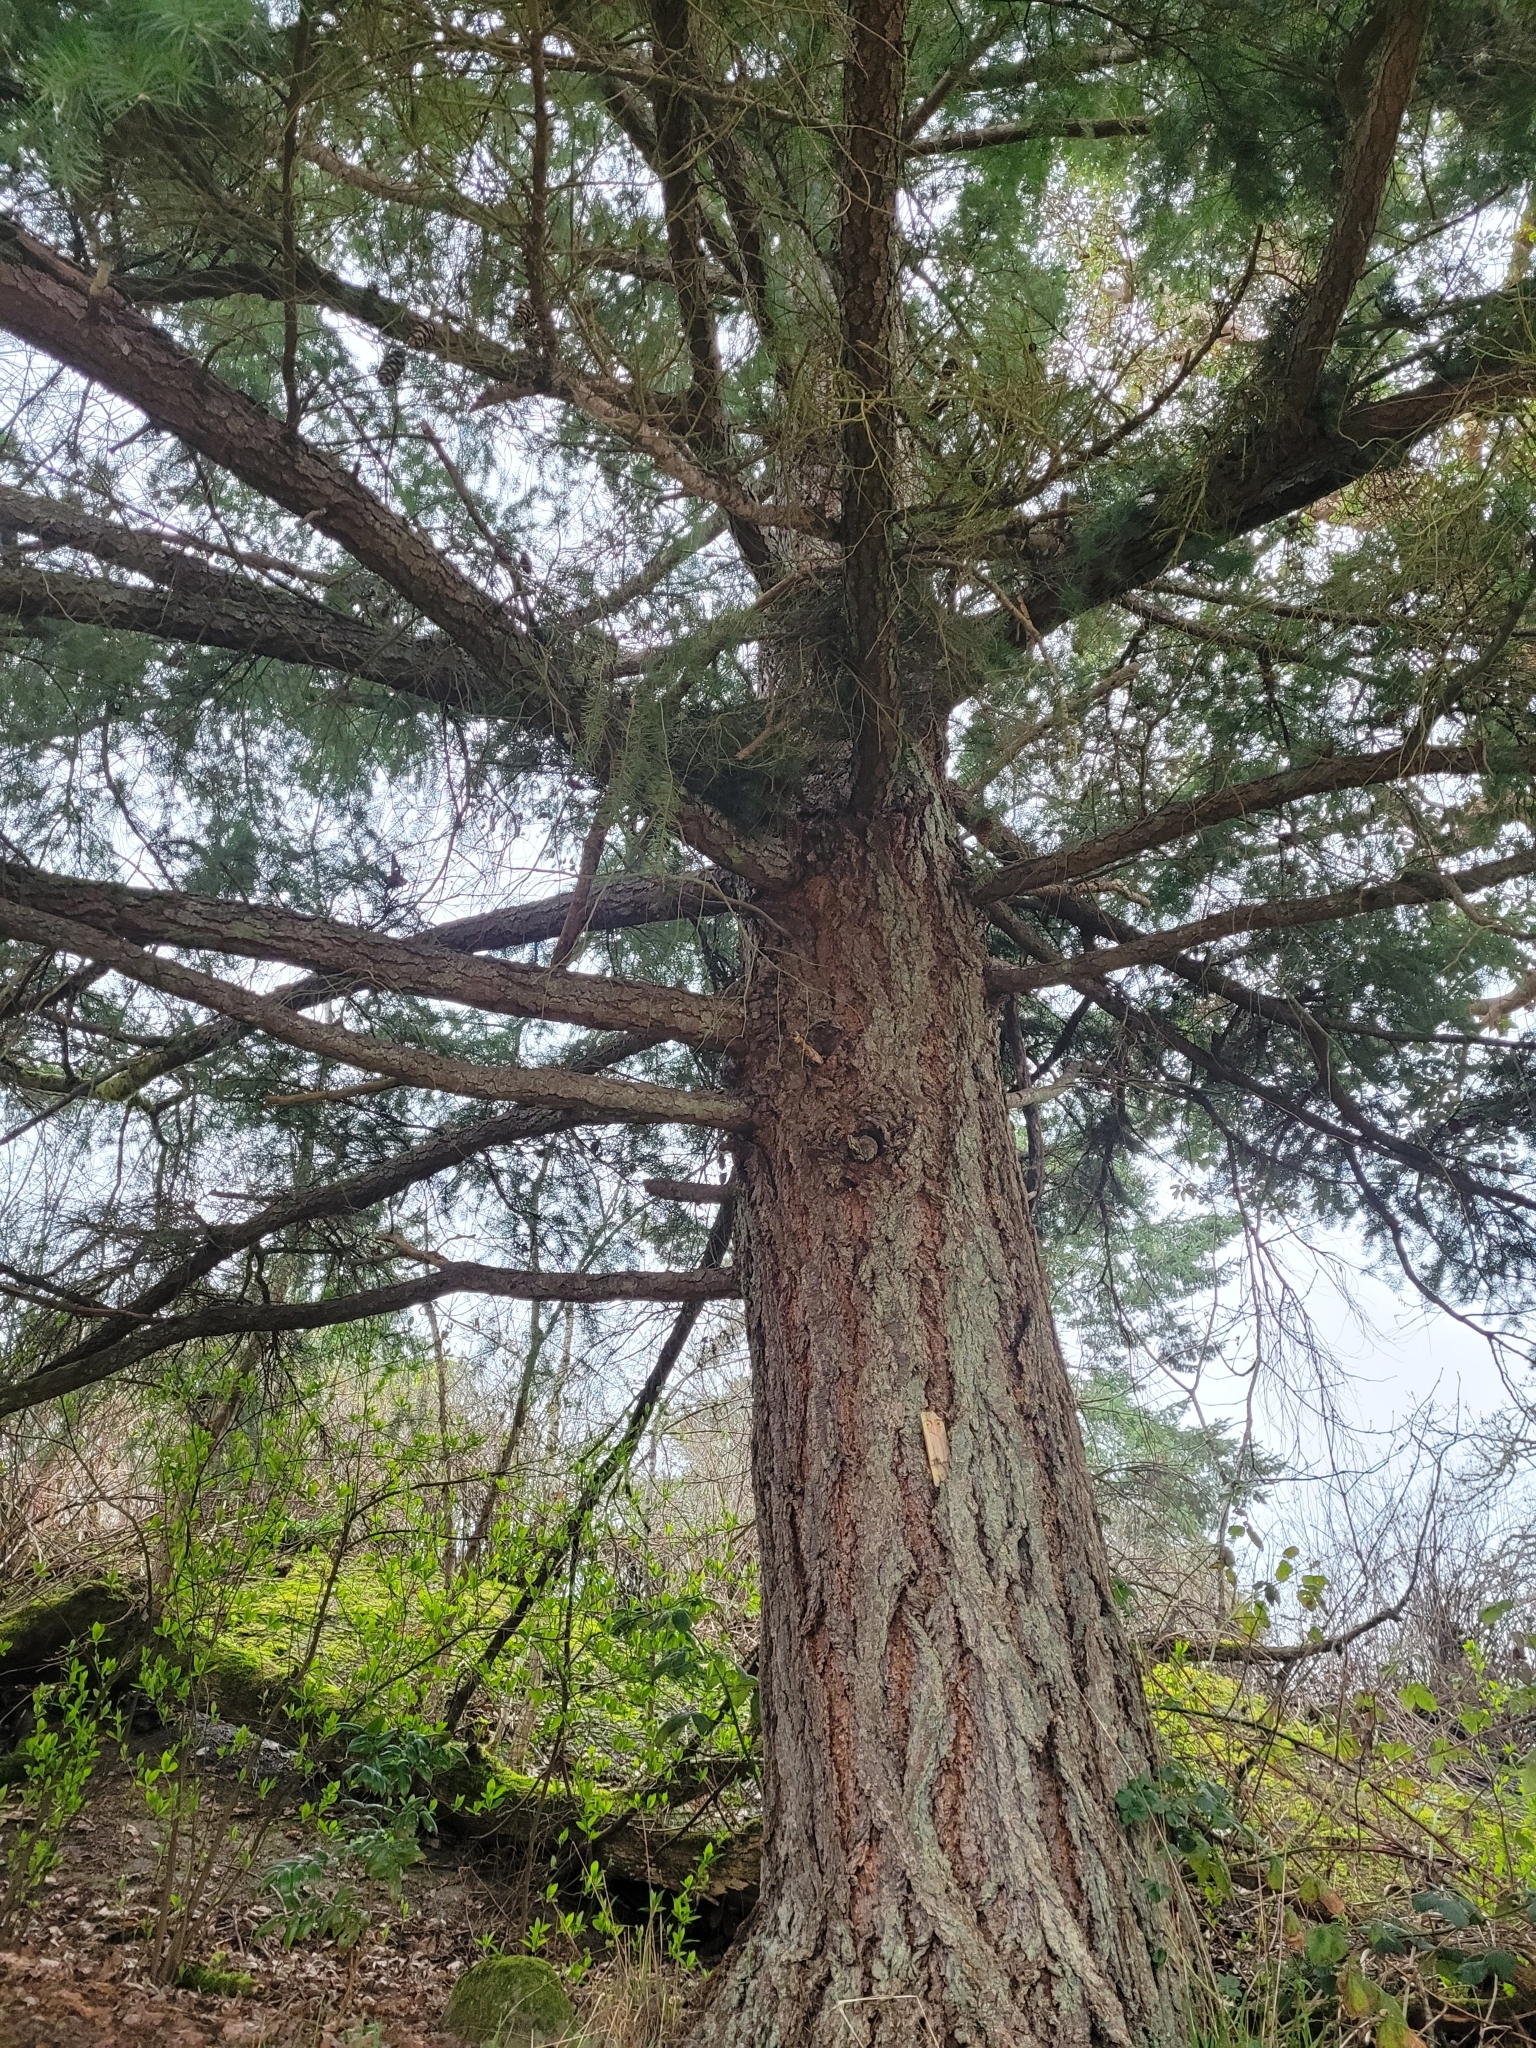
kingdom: Plantae
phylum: Tracheophyta
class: Pinopsida
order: Pinales
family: Pinaceae
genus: Pseudotsuga
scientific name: Pseudotsuga menziesii
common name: Douglas fir
